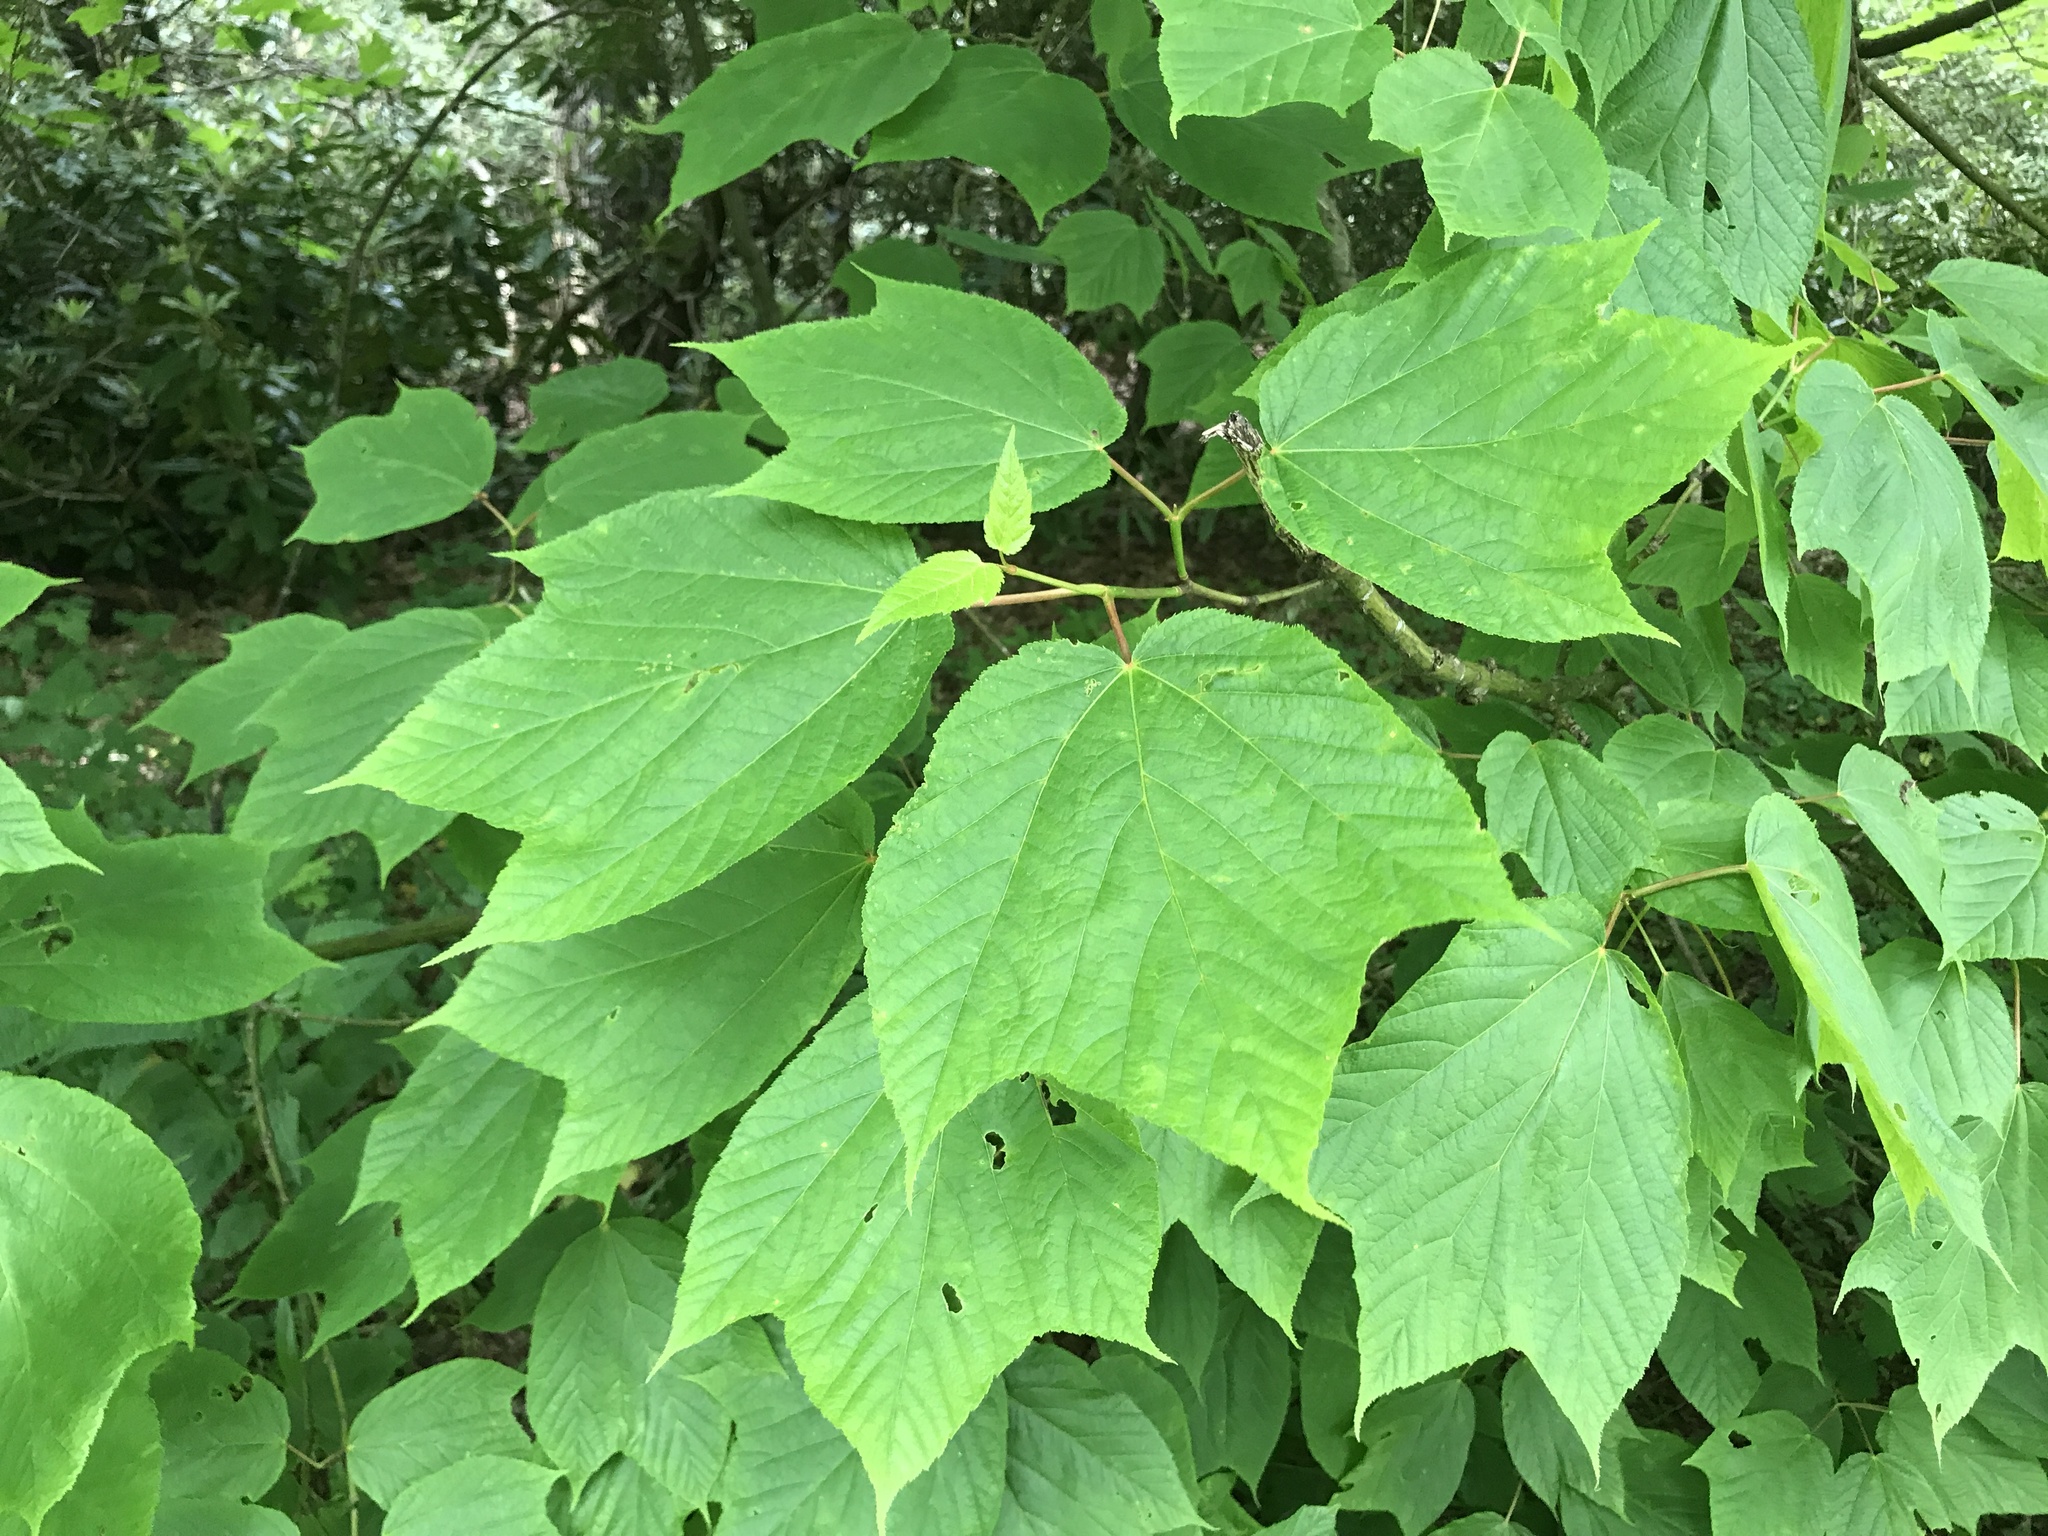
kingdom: Plantae
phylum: Tracheophyta
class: Magnoliopsida
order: Sapindales
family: Sapindaceae
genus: Acer
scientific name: Acer pensylvanicum
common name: Moosewood
